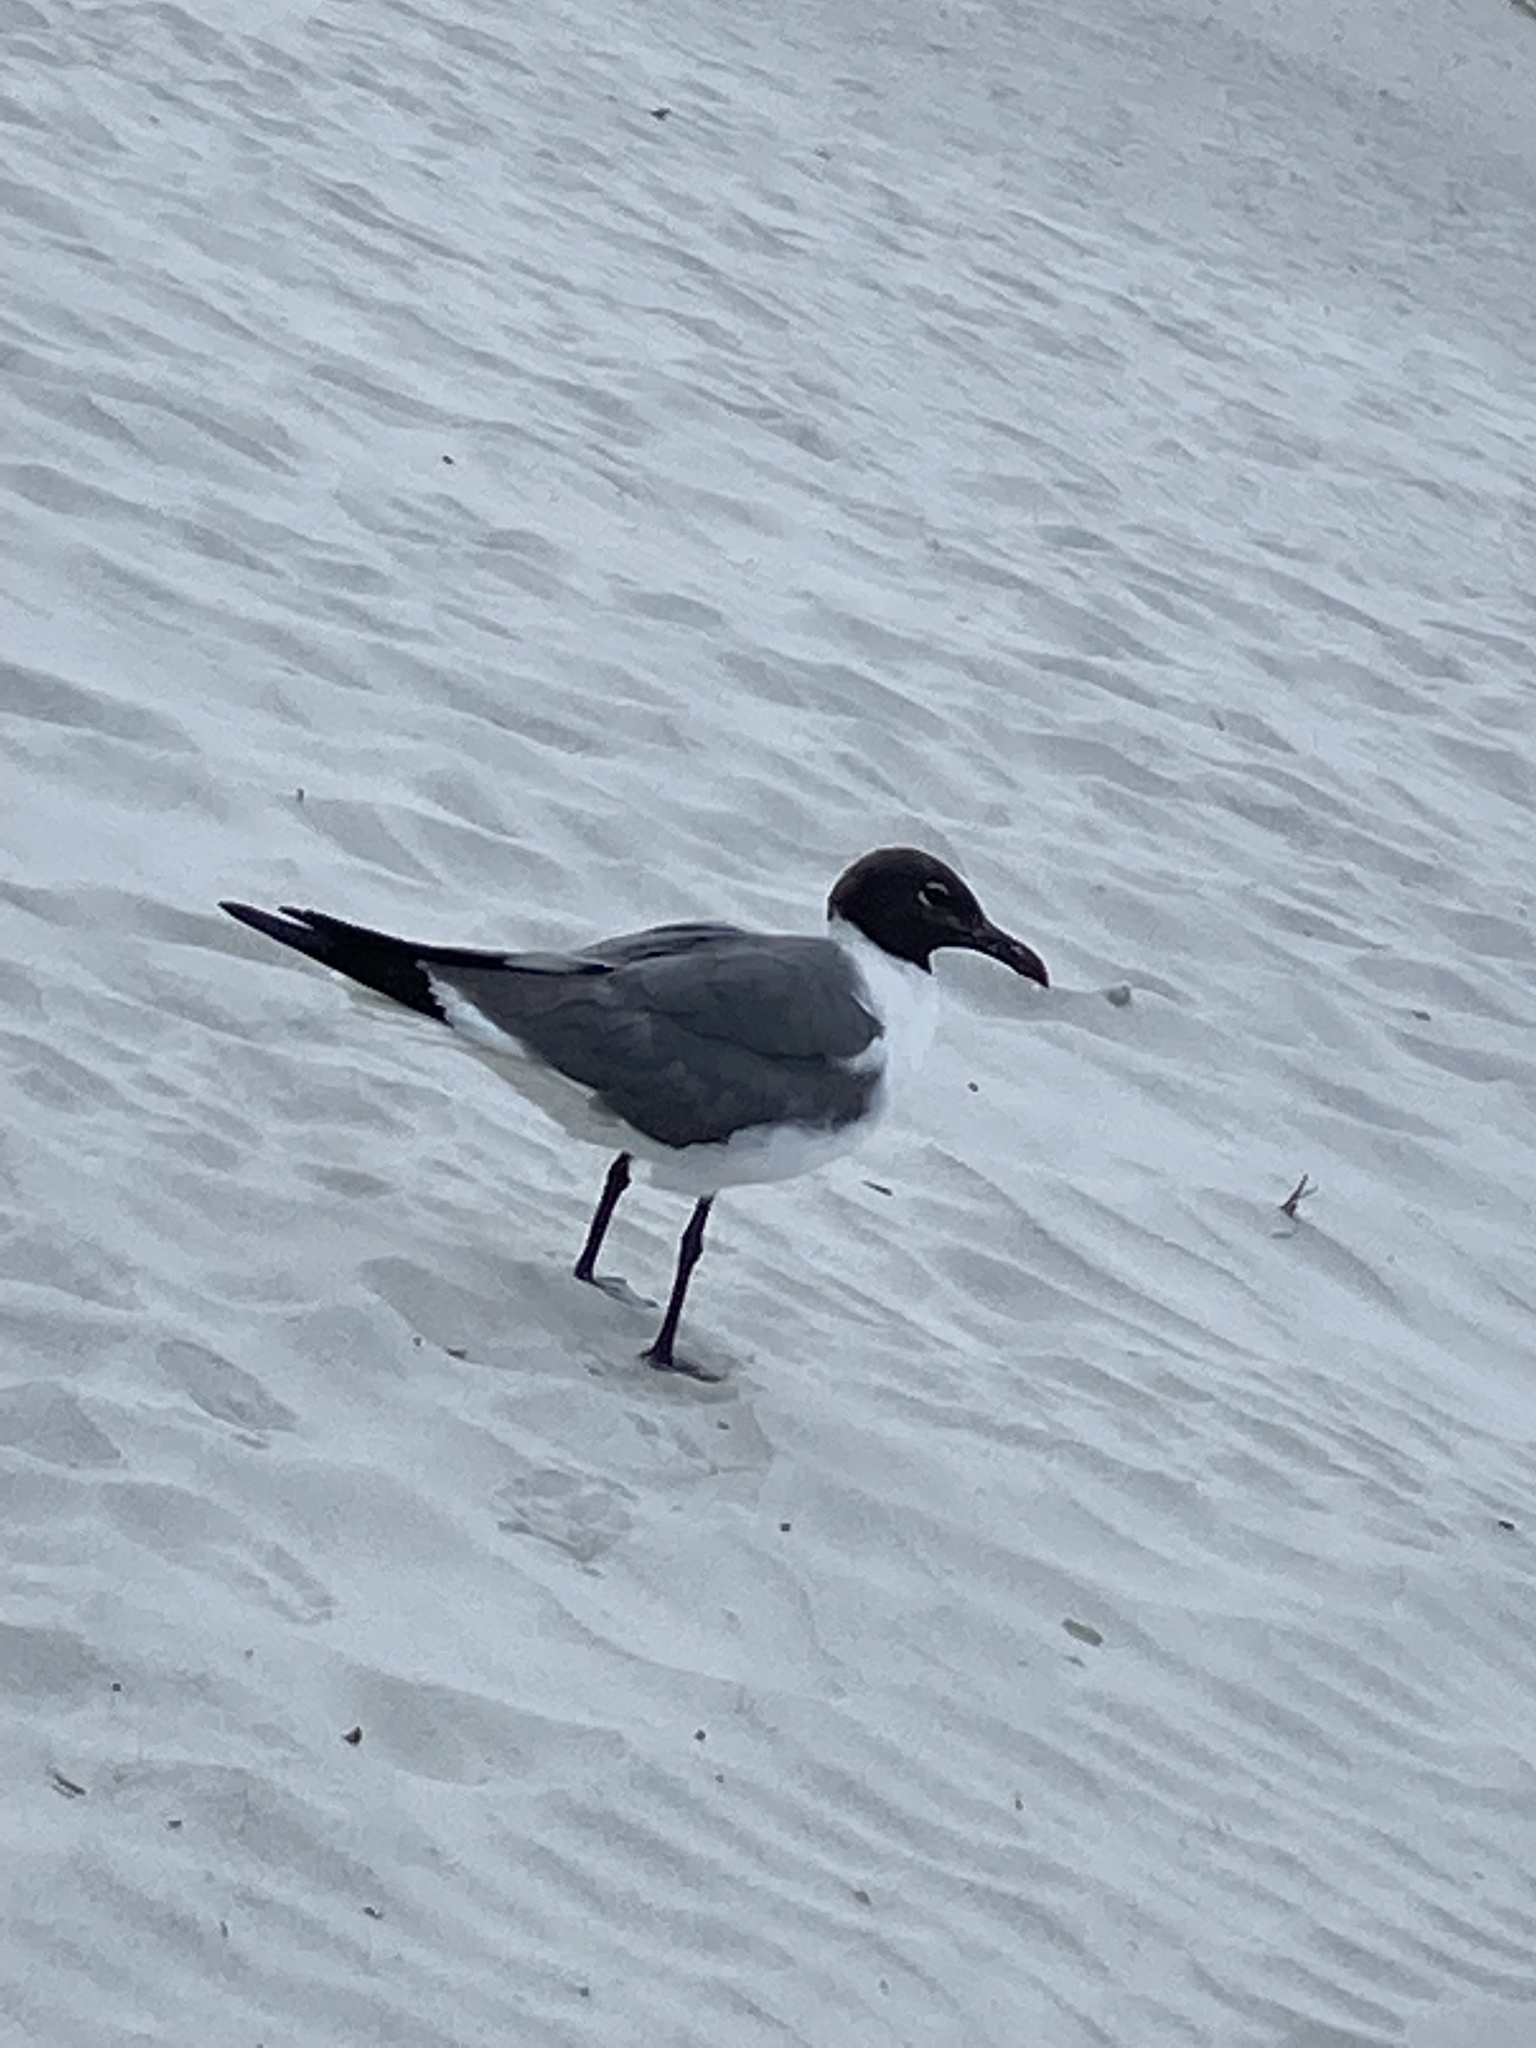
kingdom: Animalia
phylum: Chordata
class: Aves
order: Charadriiformes
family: Laridae
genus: Leucophaeus
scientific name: Leucophaeus atricilla
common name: Laughing gull
